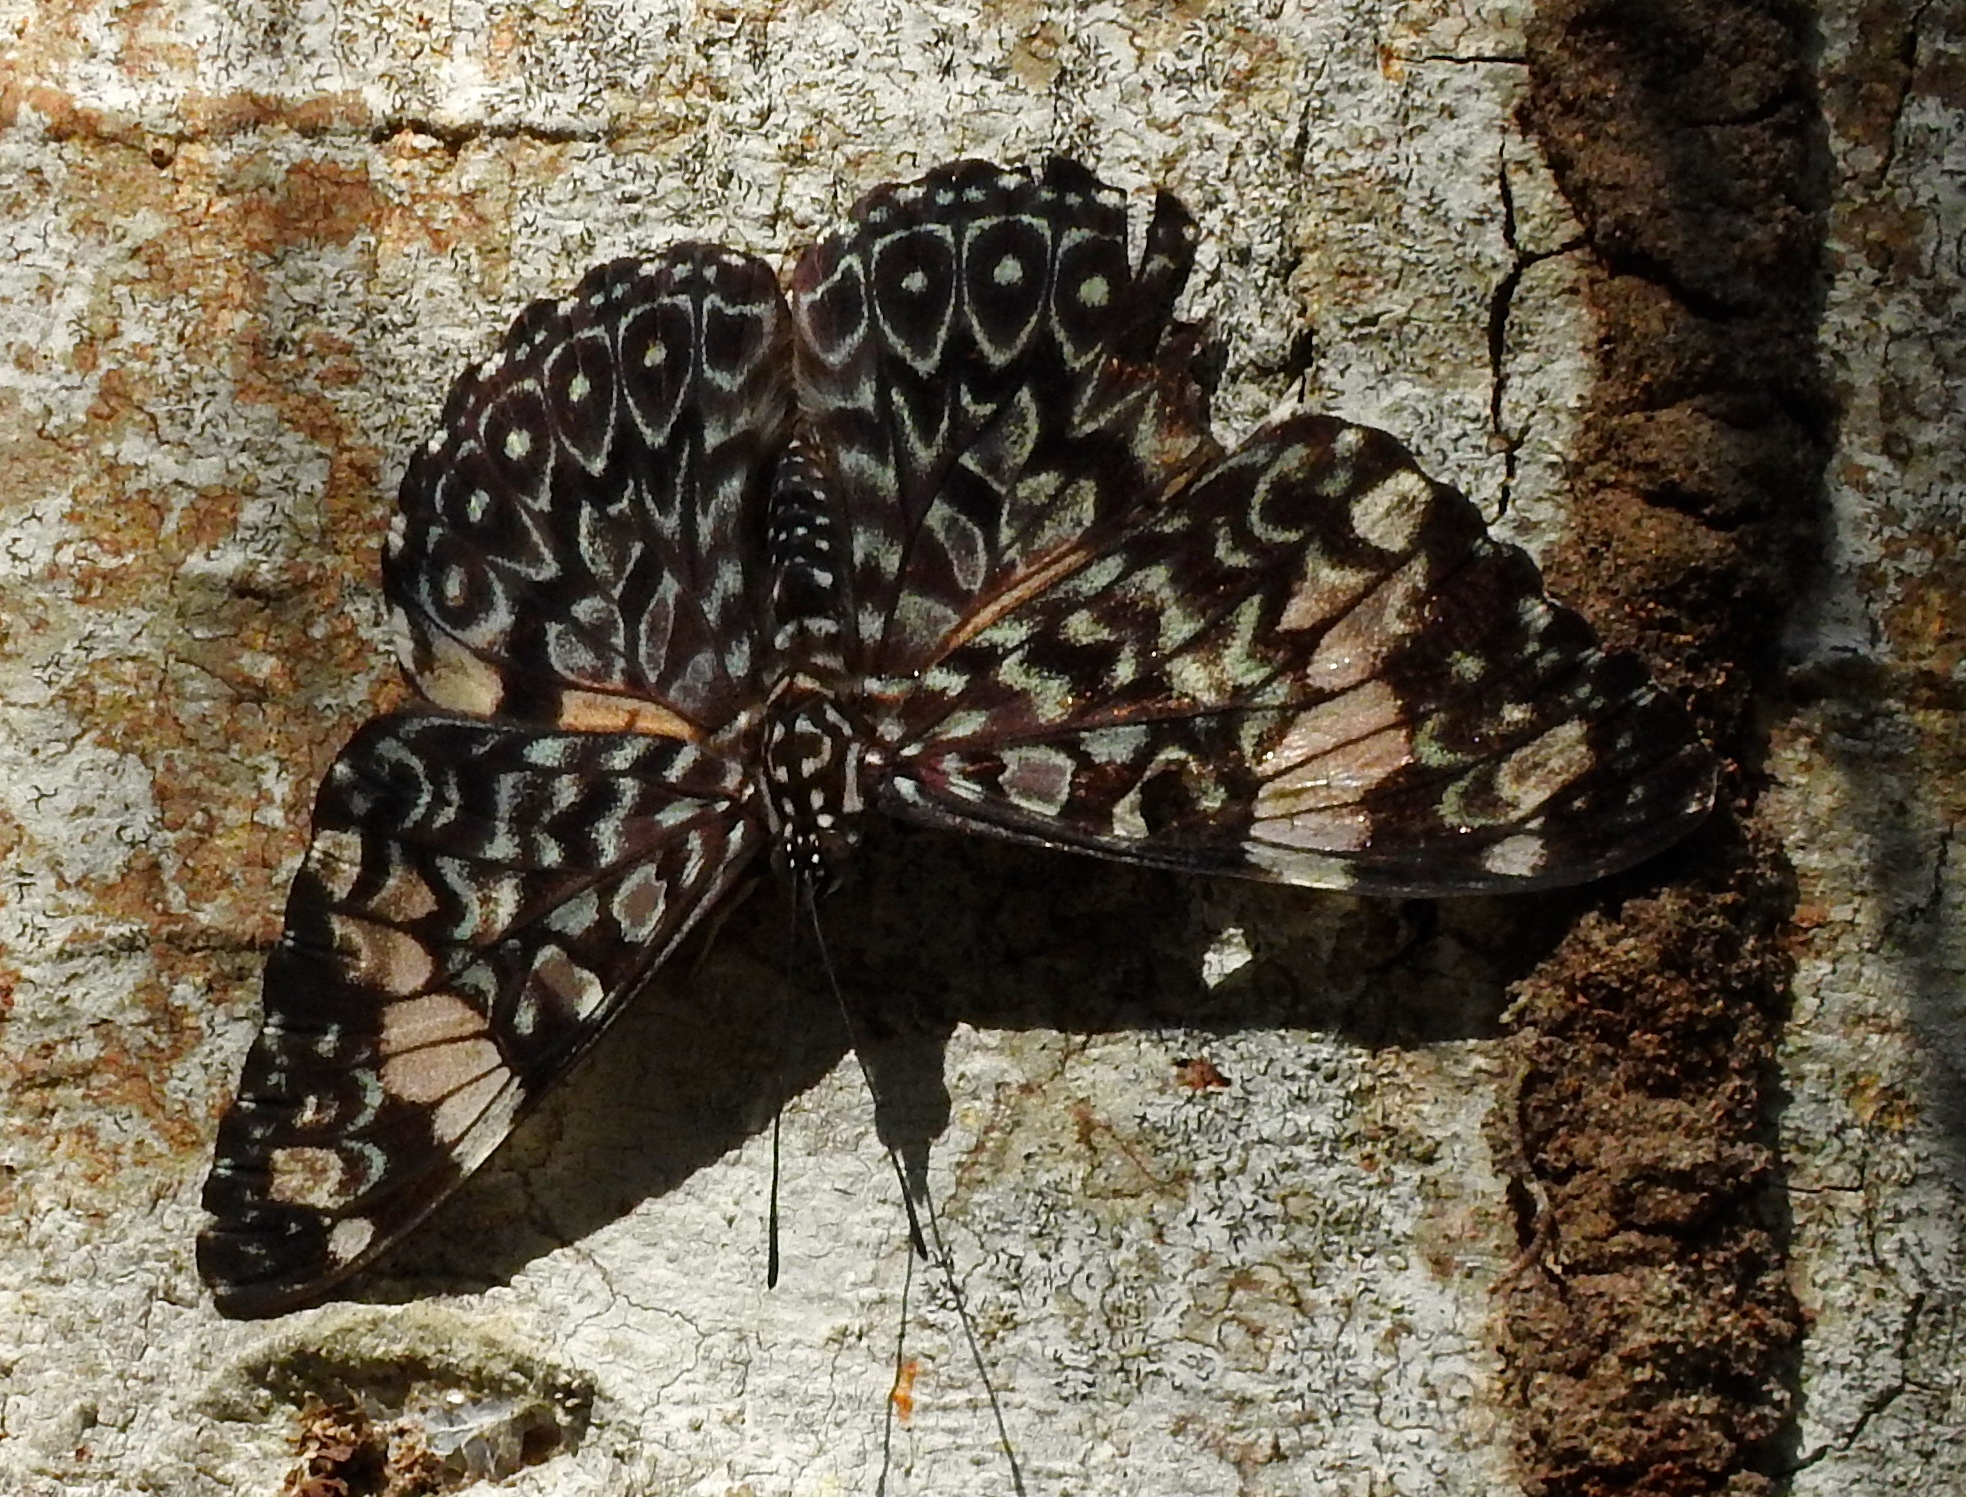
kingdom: Animalia
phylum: Arthropoda
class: Insecta
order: Lepidoptera
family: Nymphalidae
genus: Hamadryas
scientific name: Hamadryas amphinome
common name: Red cracker
